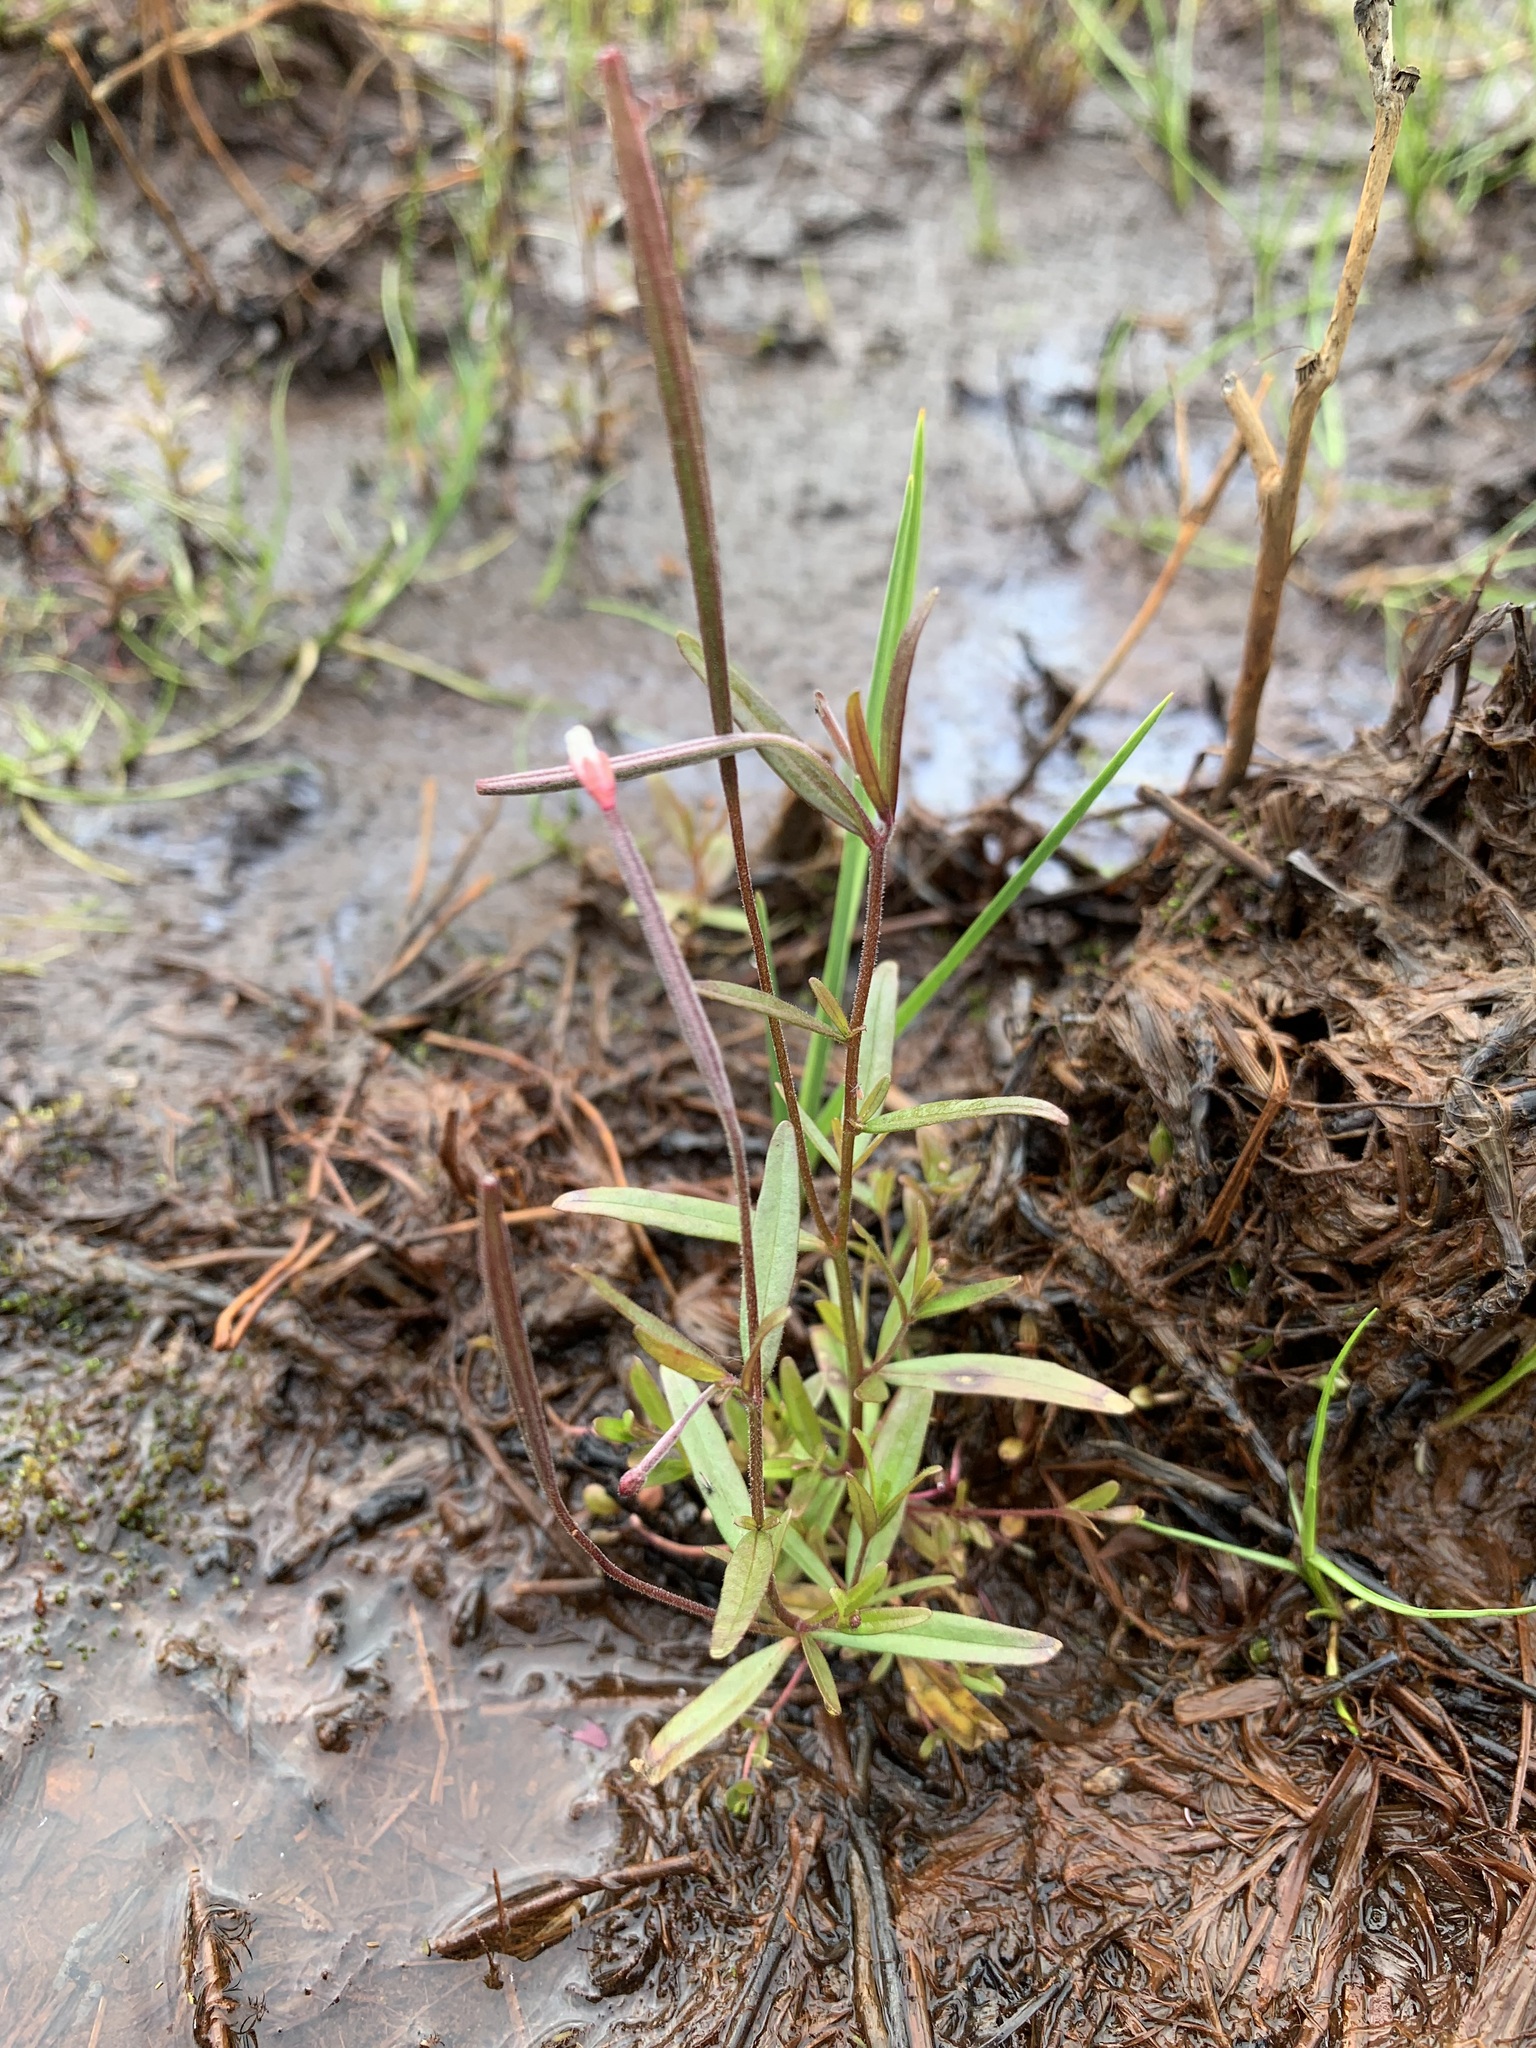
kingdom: Plantae
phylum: Tracheophyta
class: Magnoliopsida
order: Myrtales
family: Onagraceae
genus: Epilobium
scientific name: Epilobium palustre
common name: Marsh willowherb
